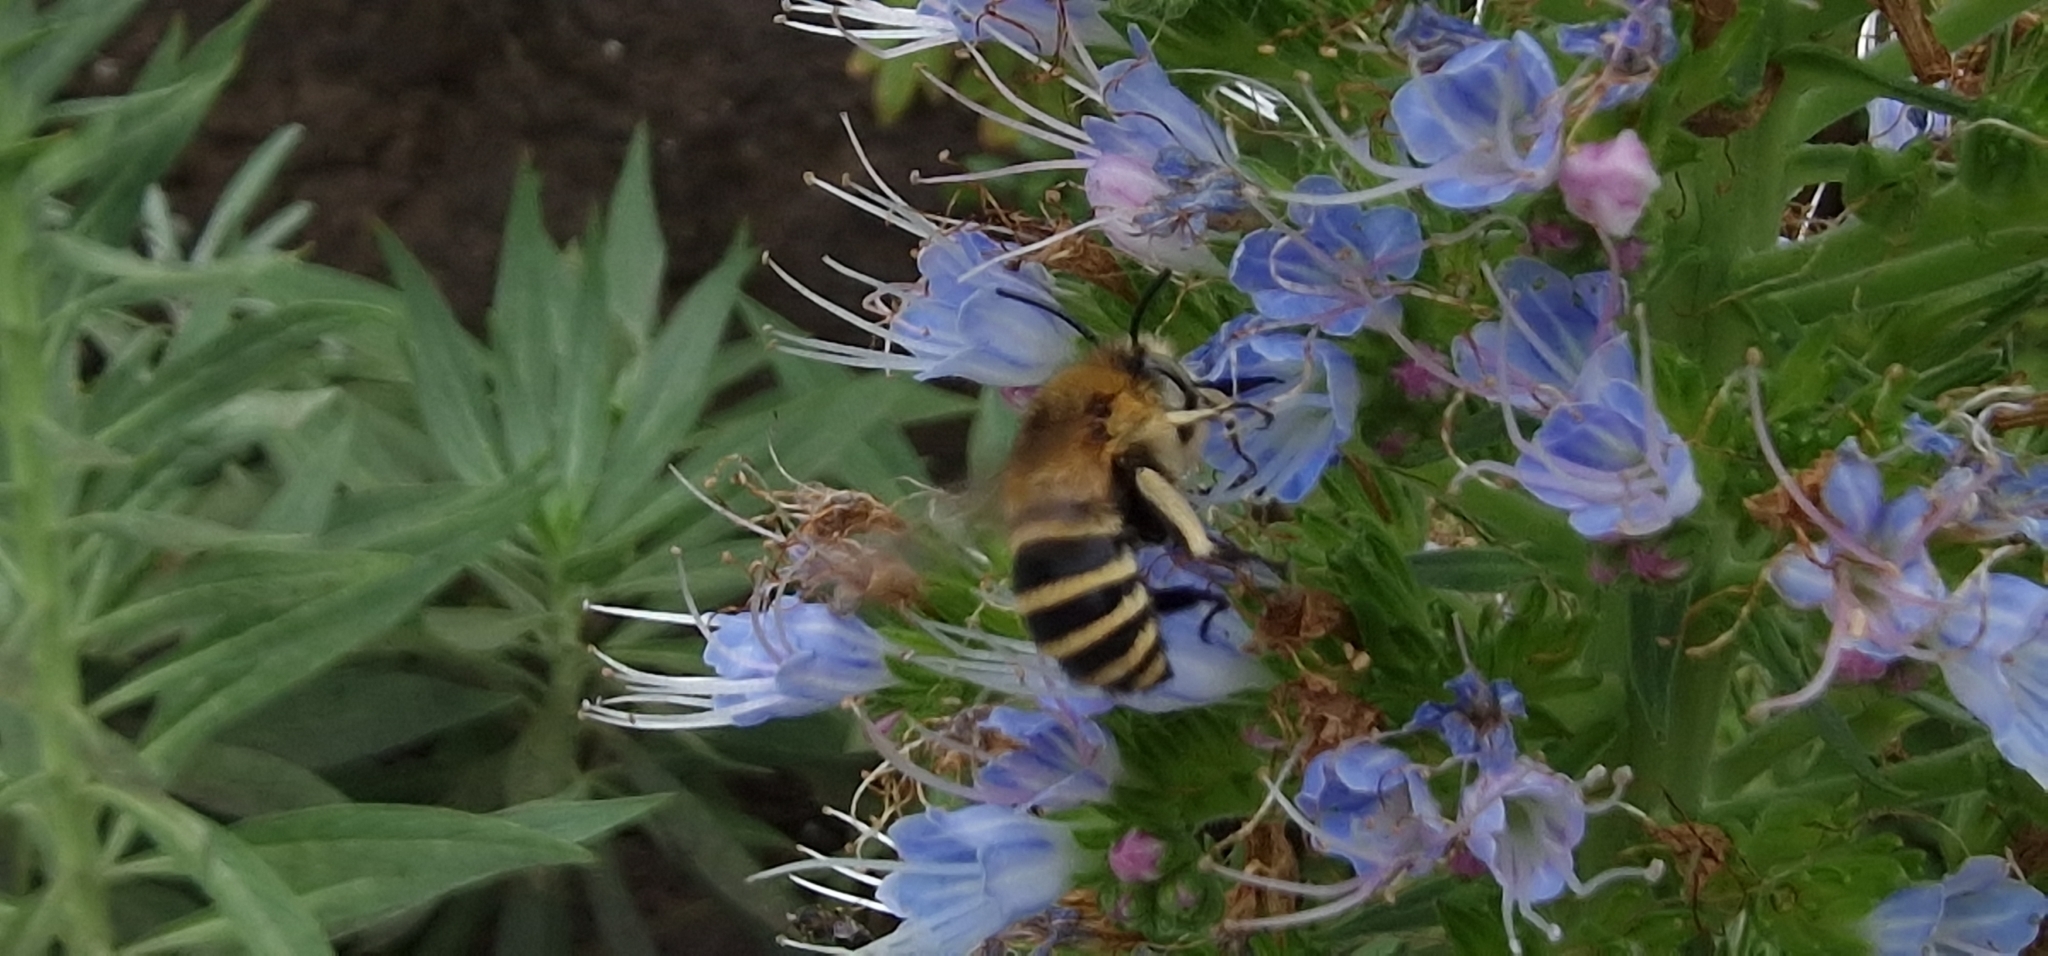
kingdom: Animalia
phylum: Arthropoda
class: Insecta
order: Hymenoptera
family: Apidae
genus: Amegilla
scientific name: Amegilla quadrifasciata
